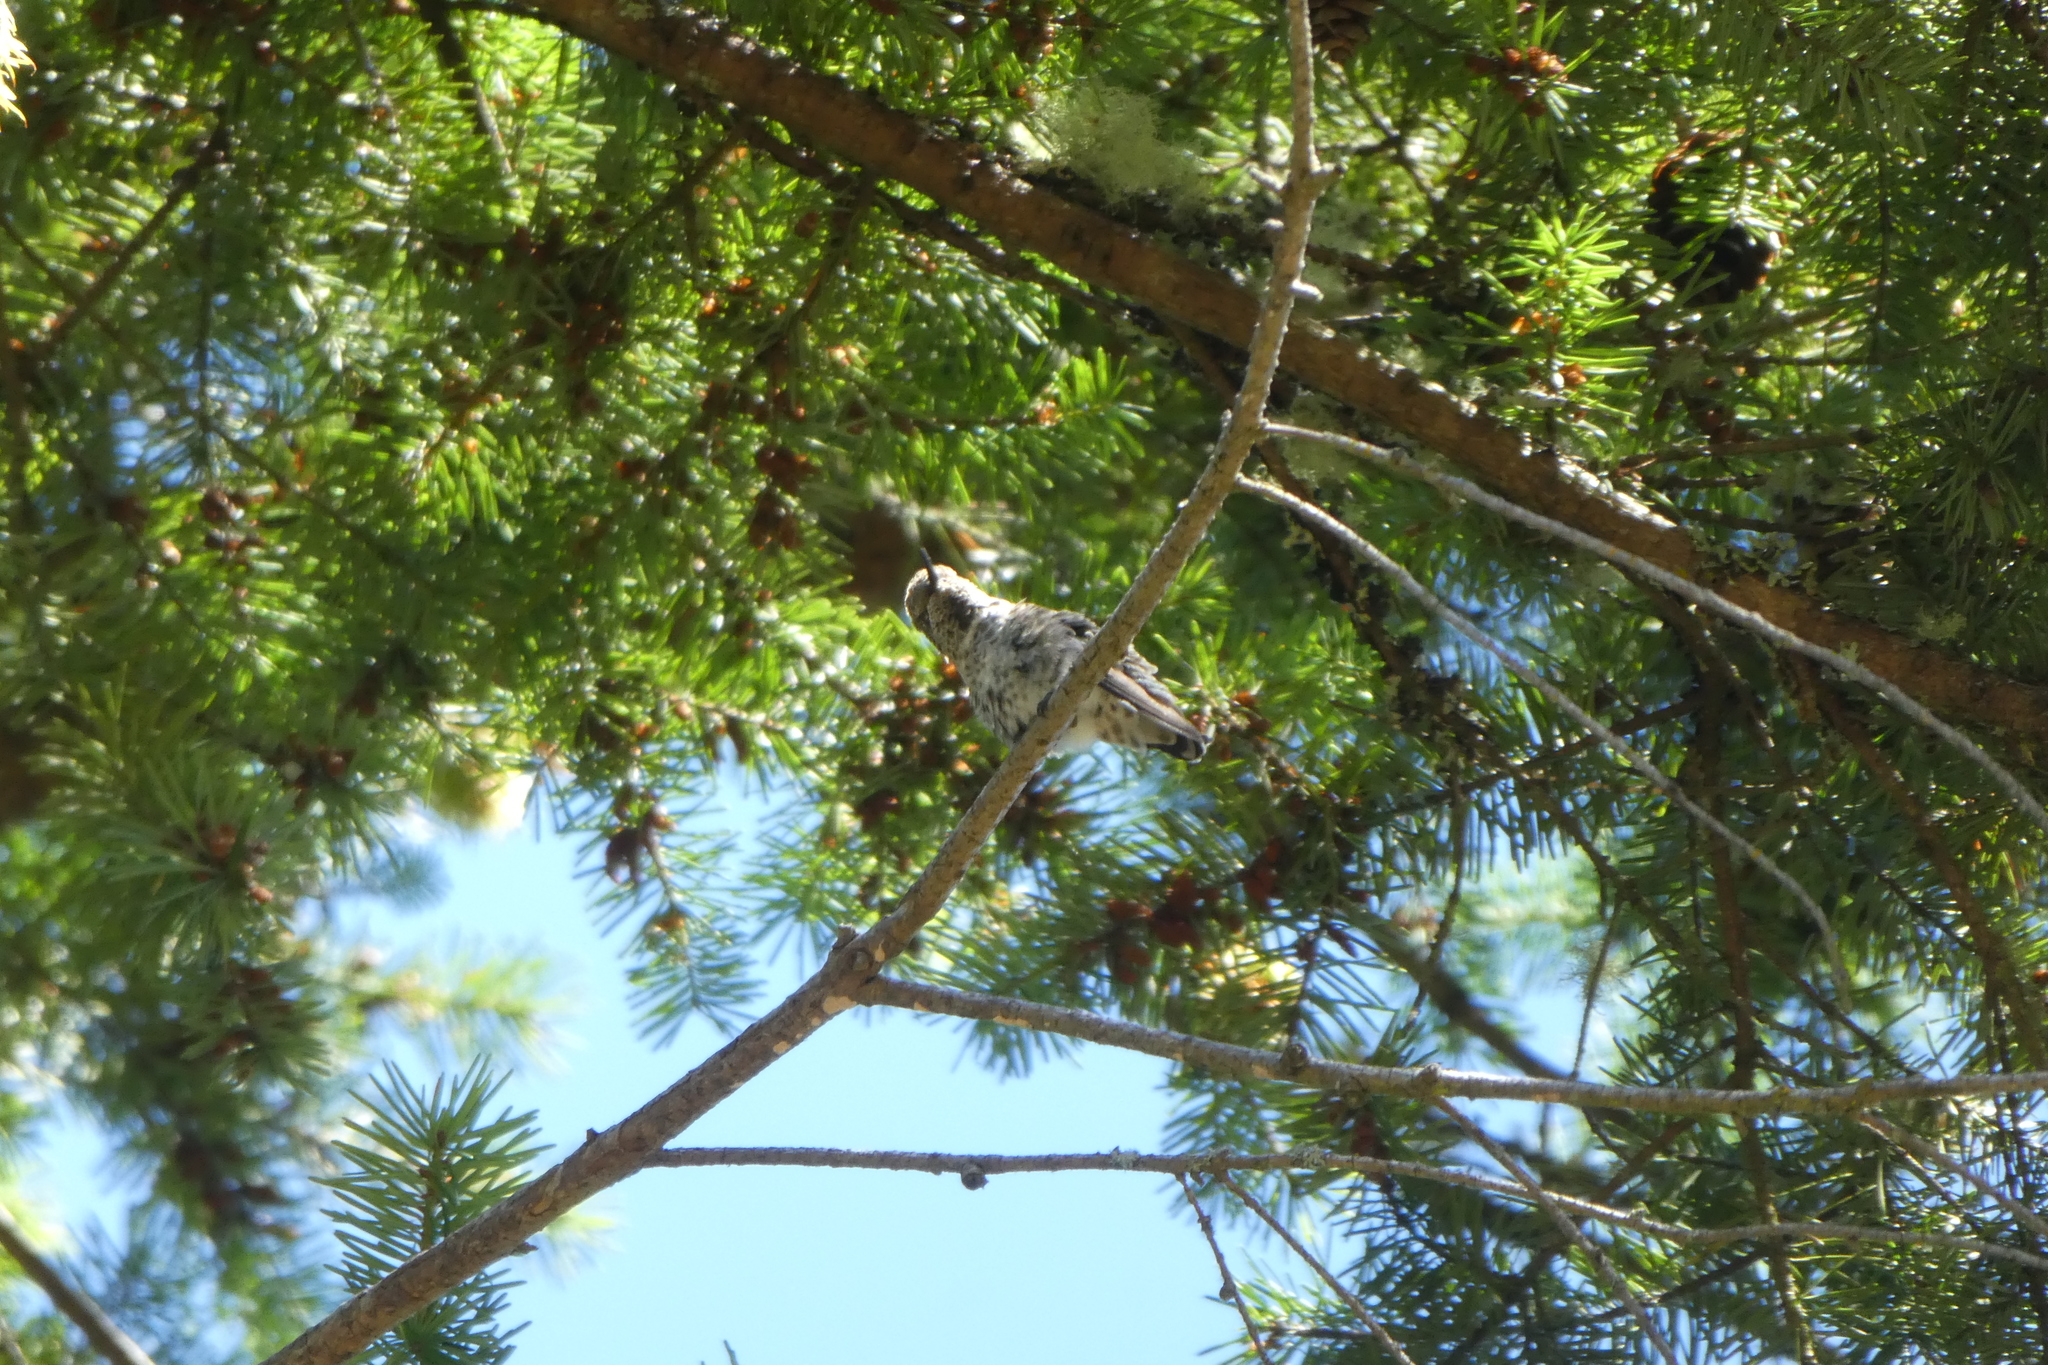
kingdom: Animalia
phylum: Chordata
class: Aves
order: Apodiformes
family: Trochilidae
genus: Calypte
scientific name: Calypte anna
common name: Anna's hummingbird
